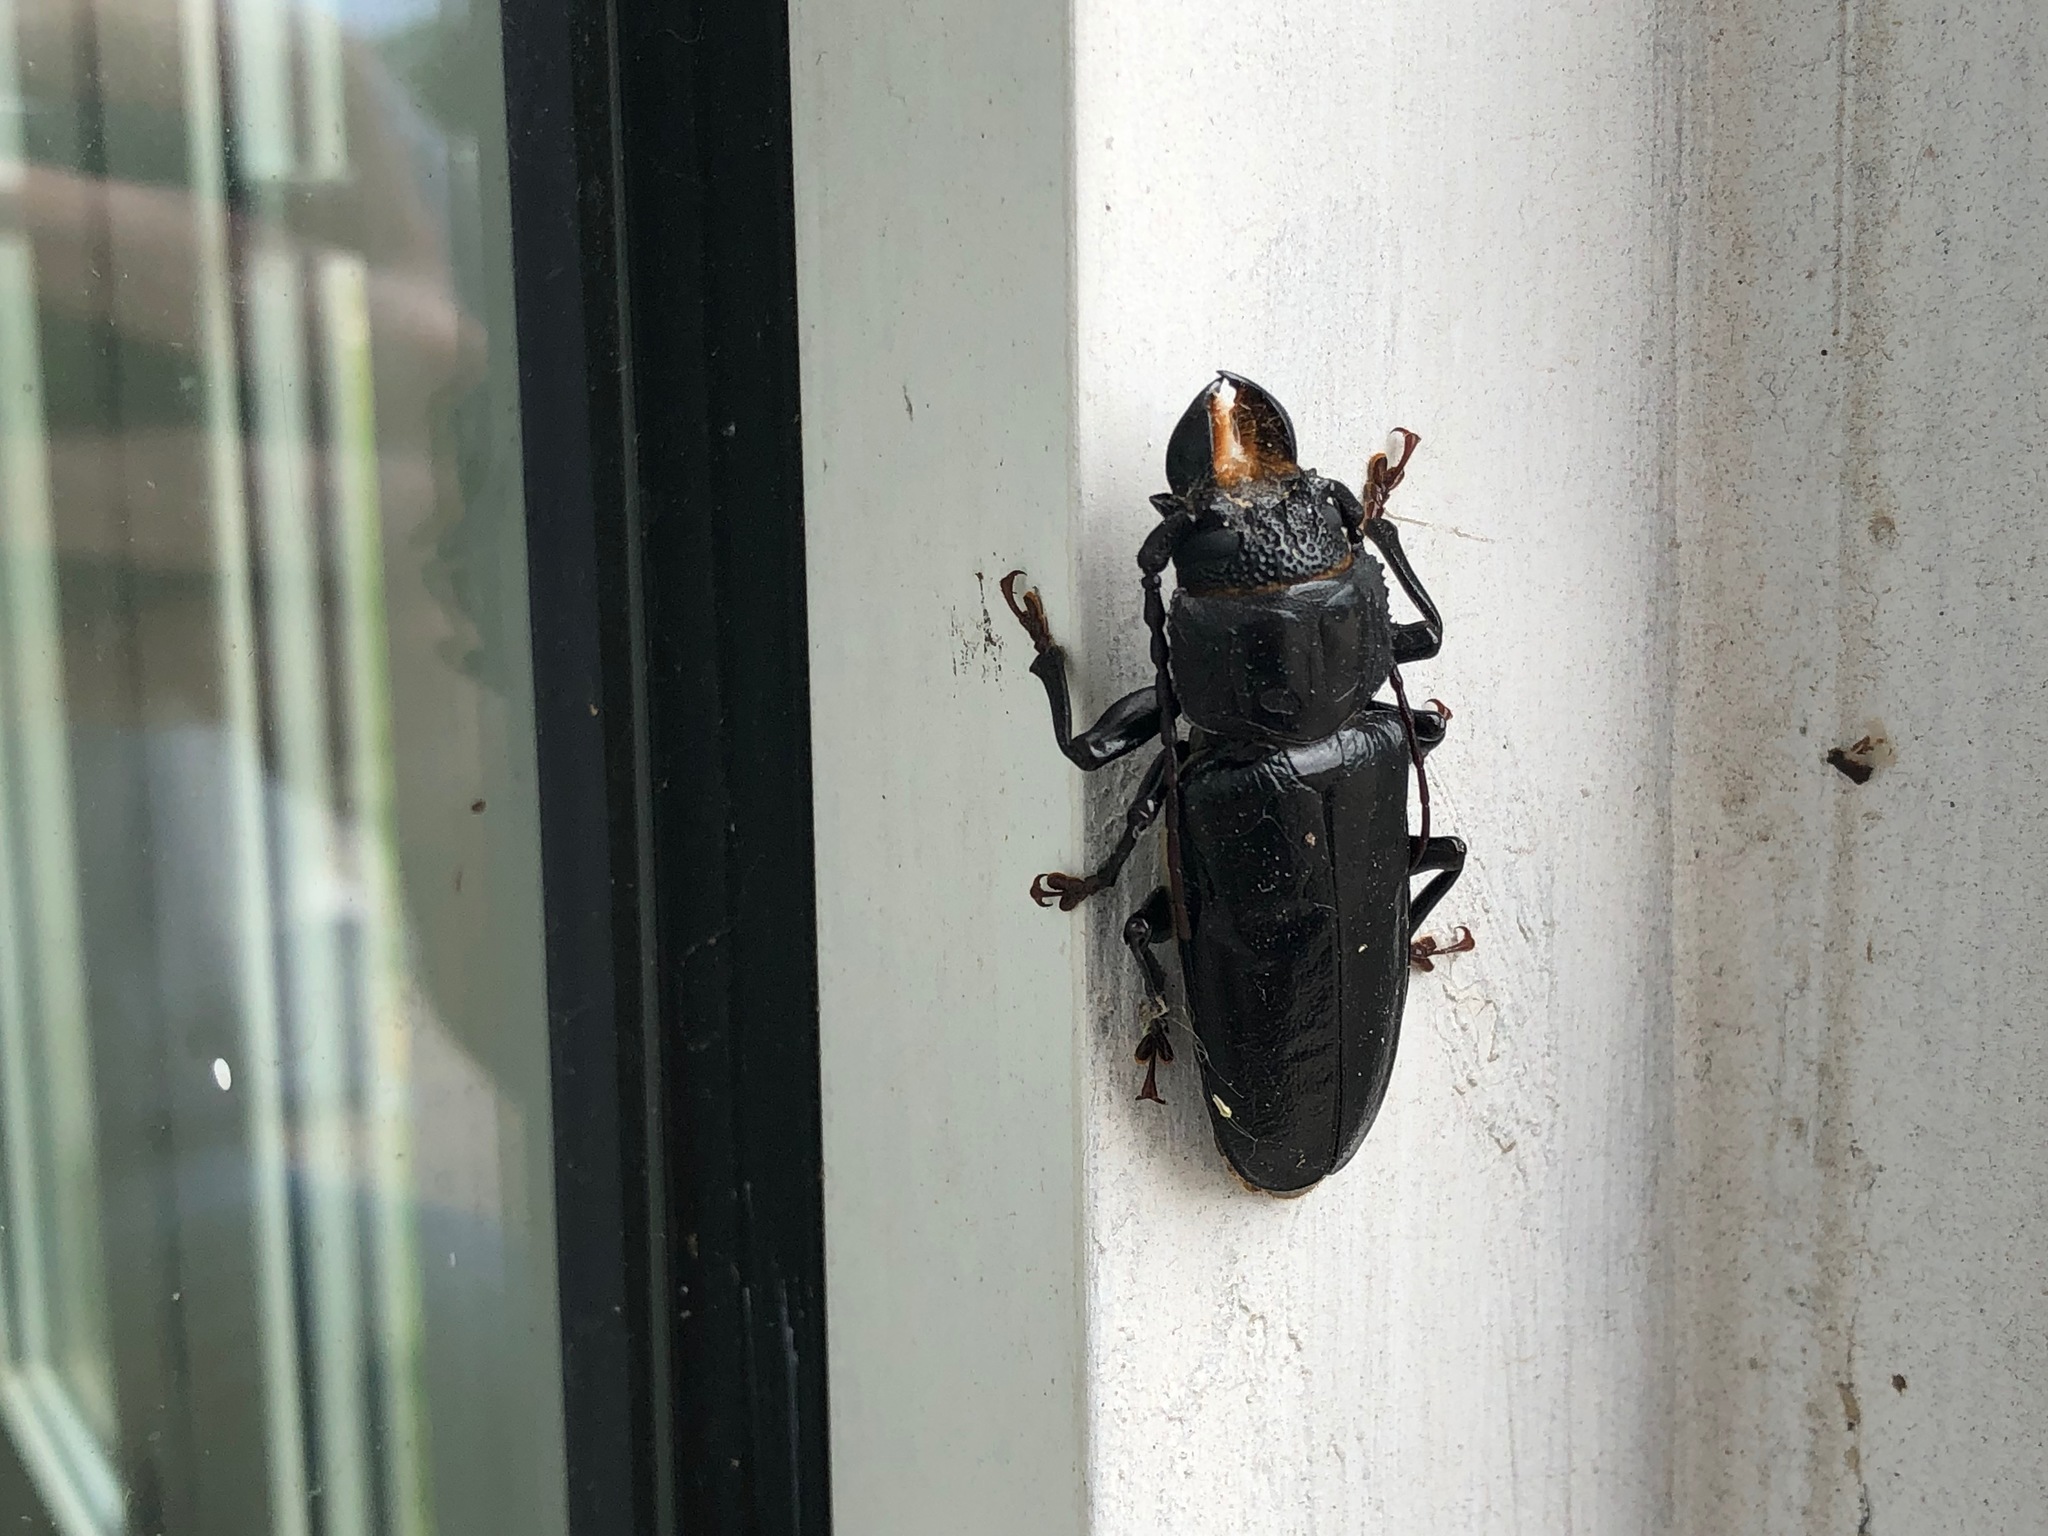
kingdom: Animalia
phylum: Arthropoda
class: Insecta
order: Coleoptera
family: Cerambycidae
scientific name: Cerambycidae
